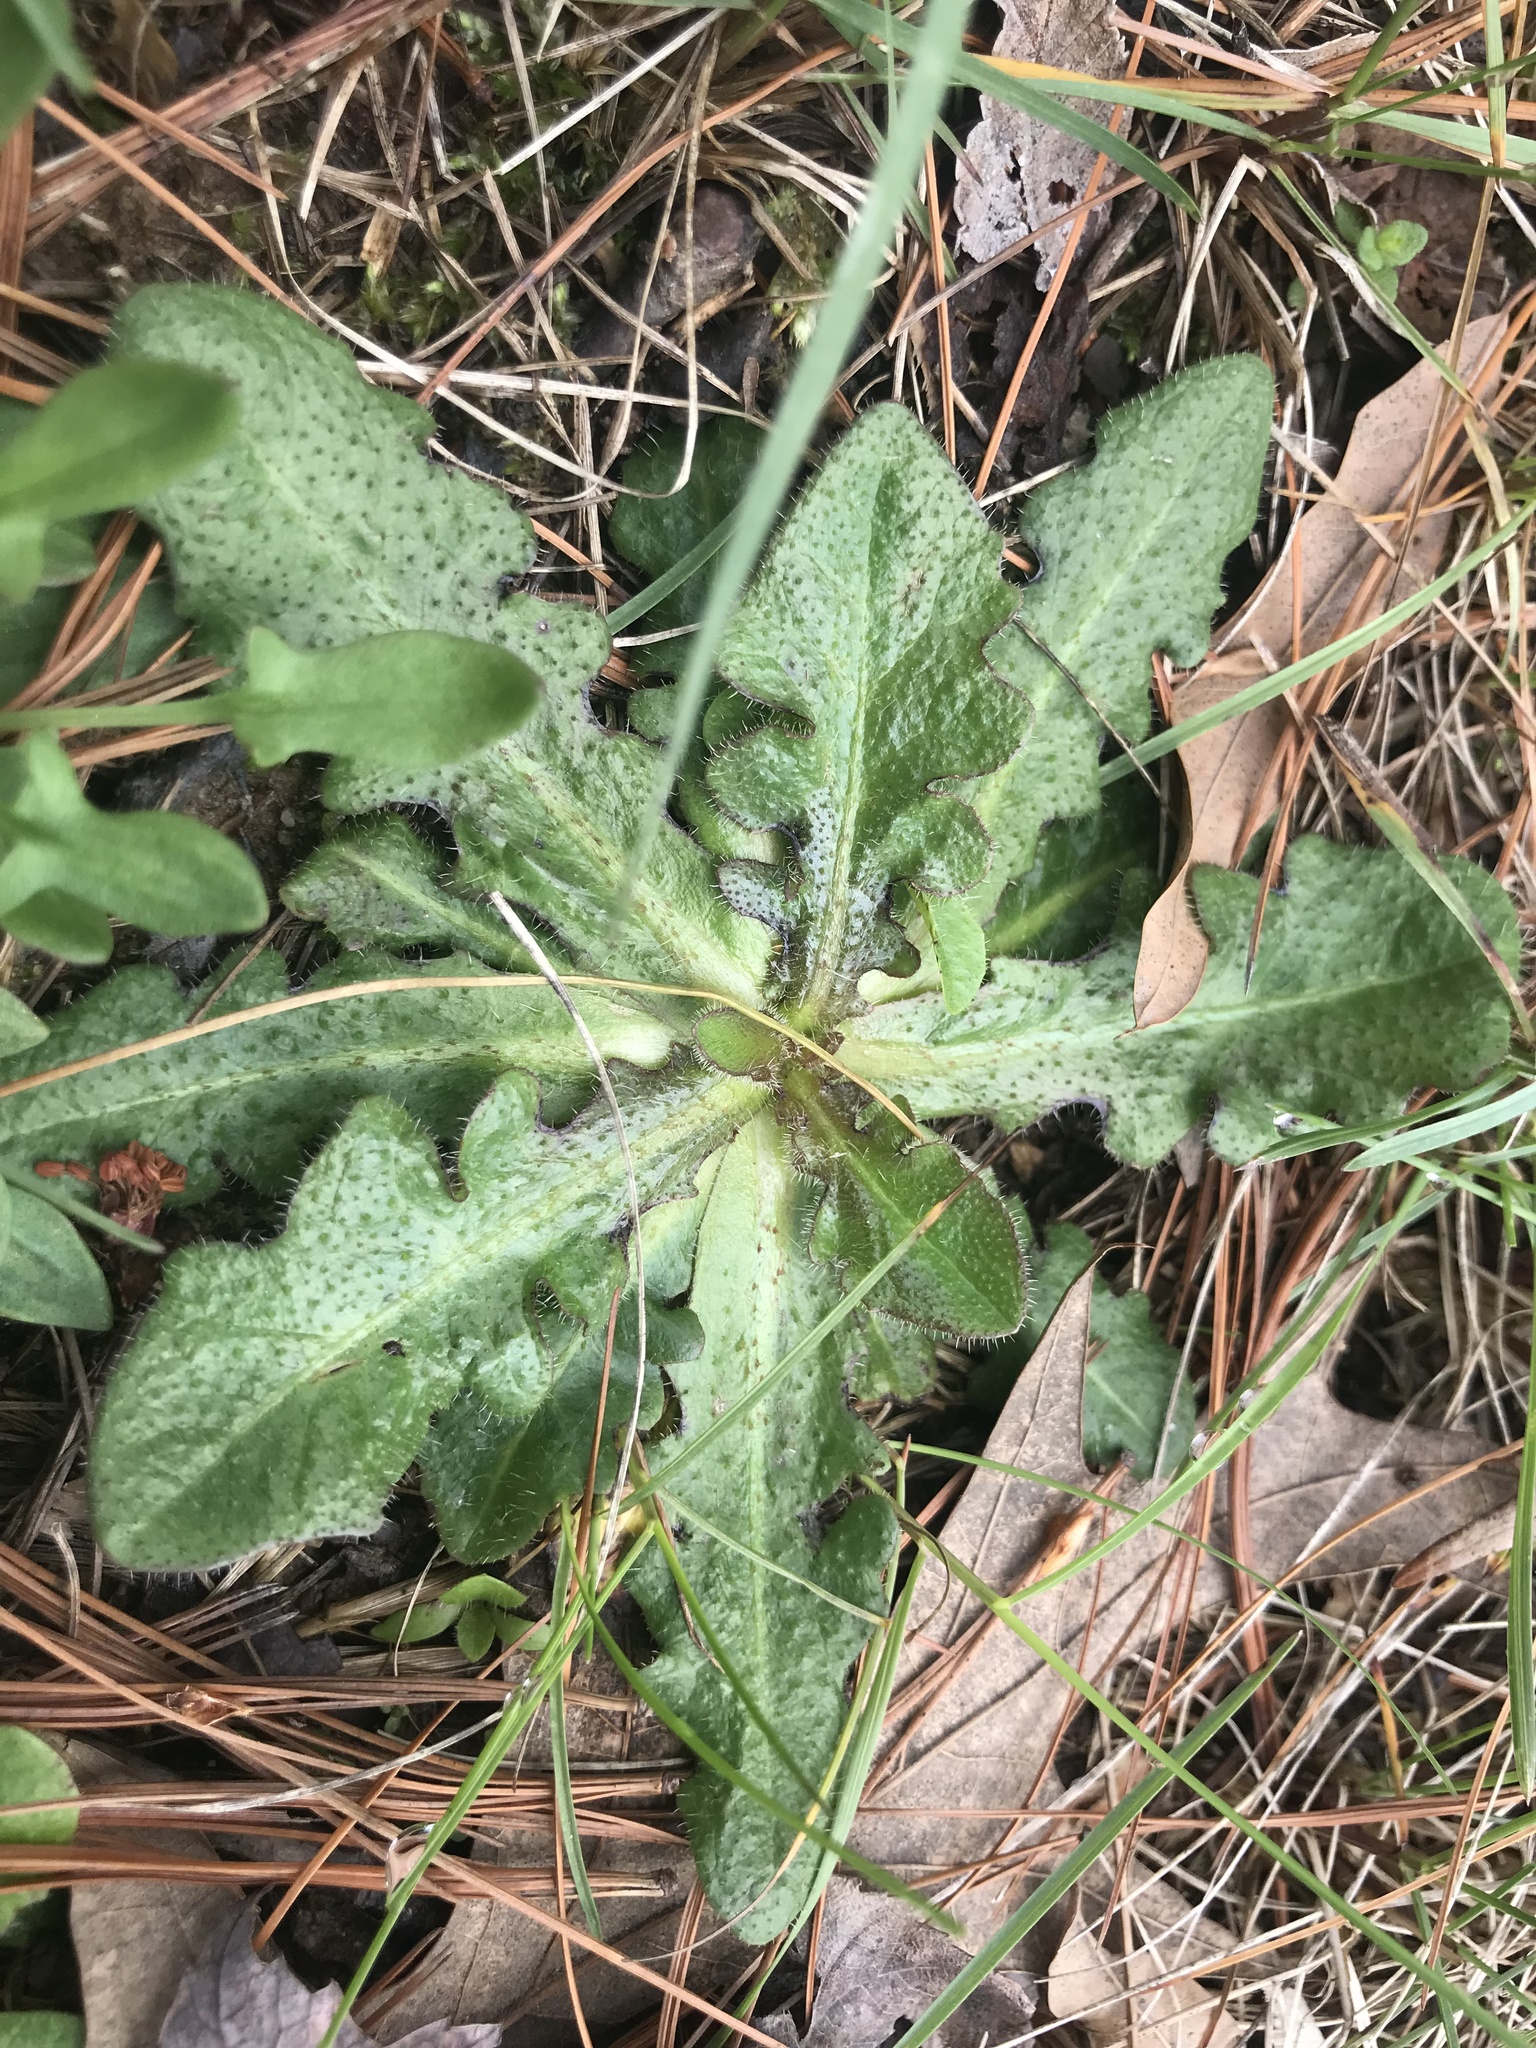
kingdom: Plantae
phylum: Tracheophyta
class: Magnoliopsida
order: Asterales
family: Asteraceae
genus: Hypochaeris
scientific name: Hypochaeris radicata
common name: Flatweed
